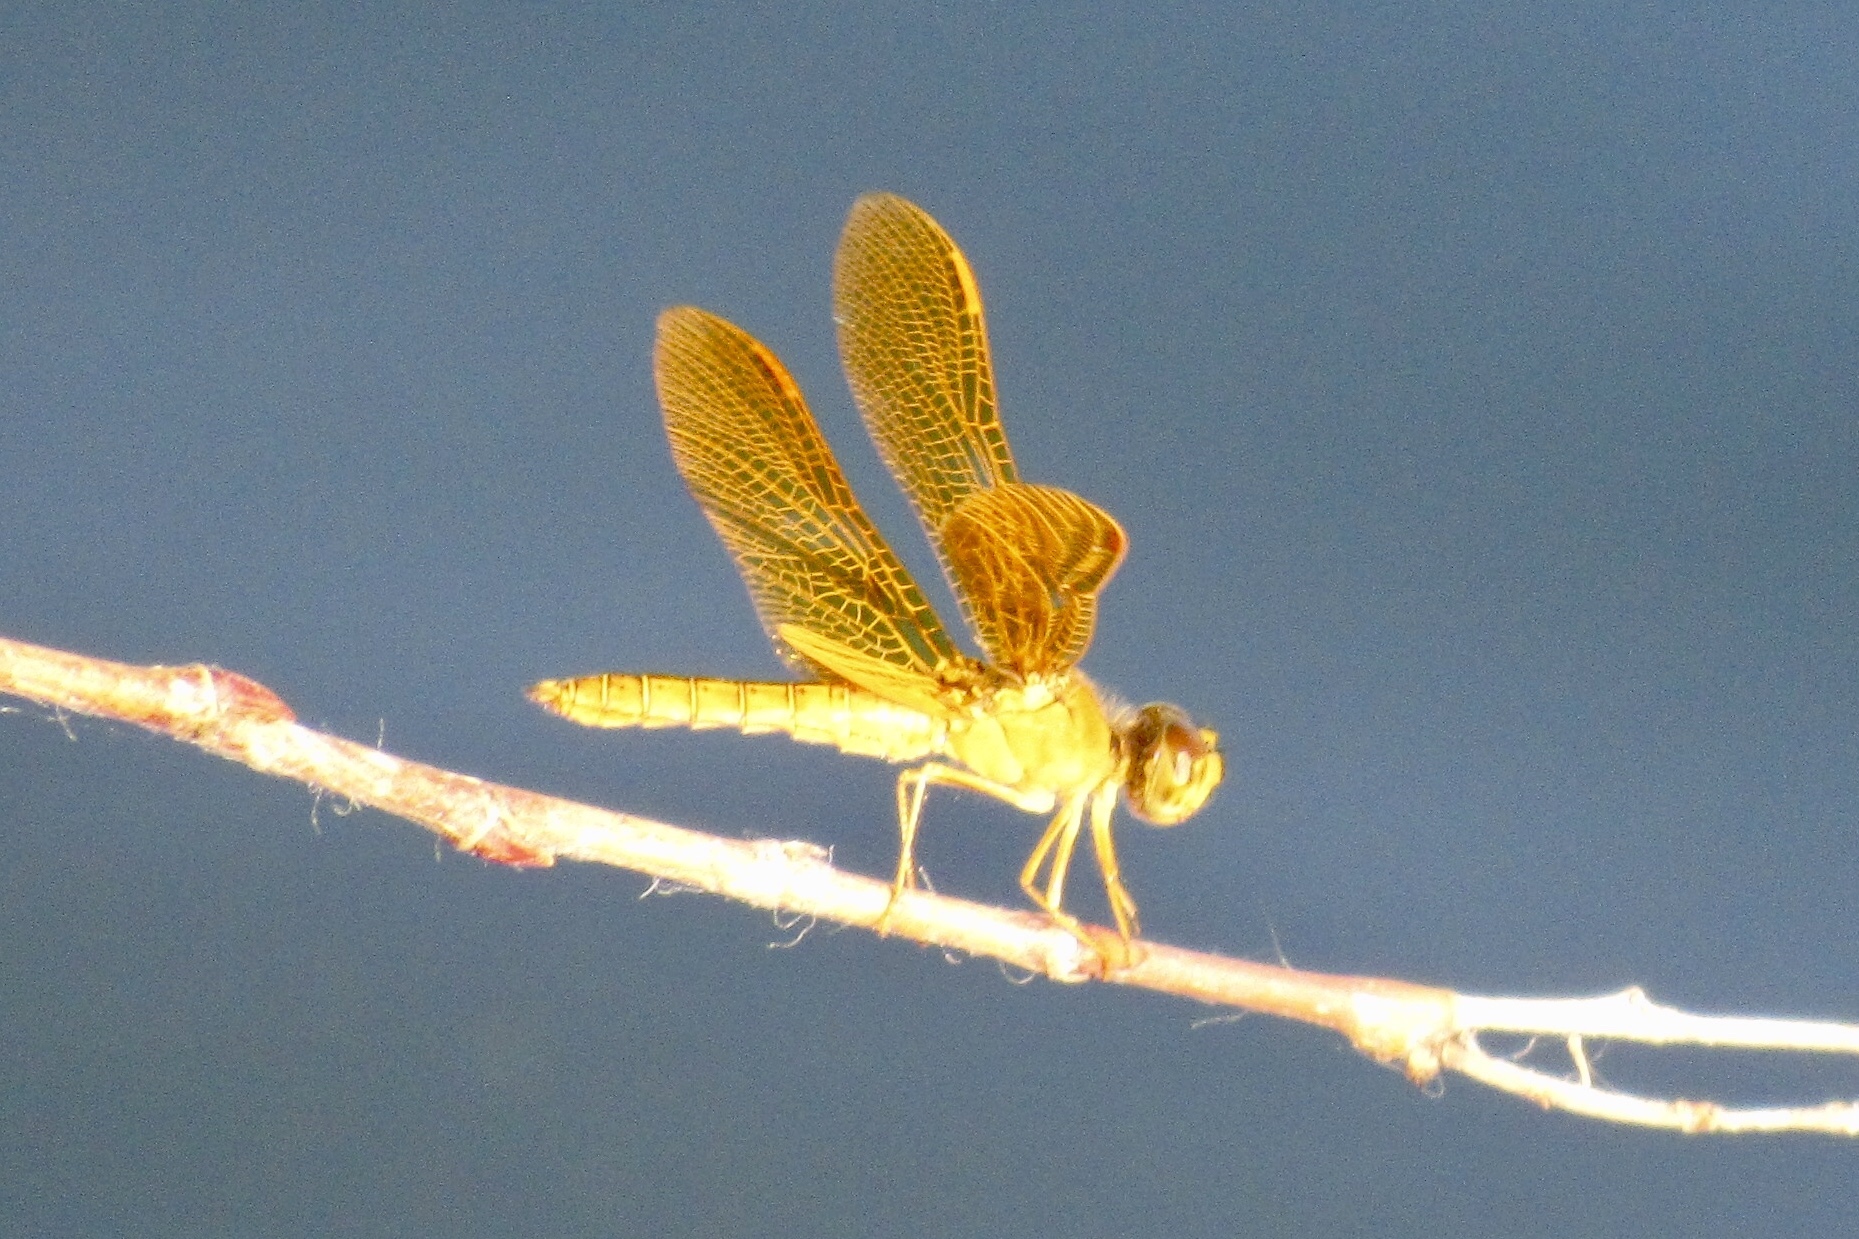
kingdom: Animalia
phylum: Arthropoda
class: Insecta
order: Odonata
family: Libellulidae
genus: Perithemis
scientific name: Perithemis intensa
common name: Mexican amberwing
